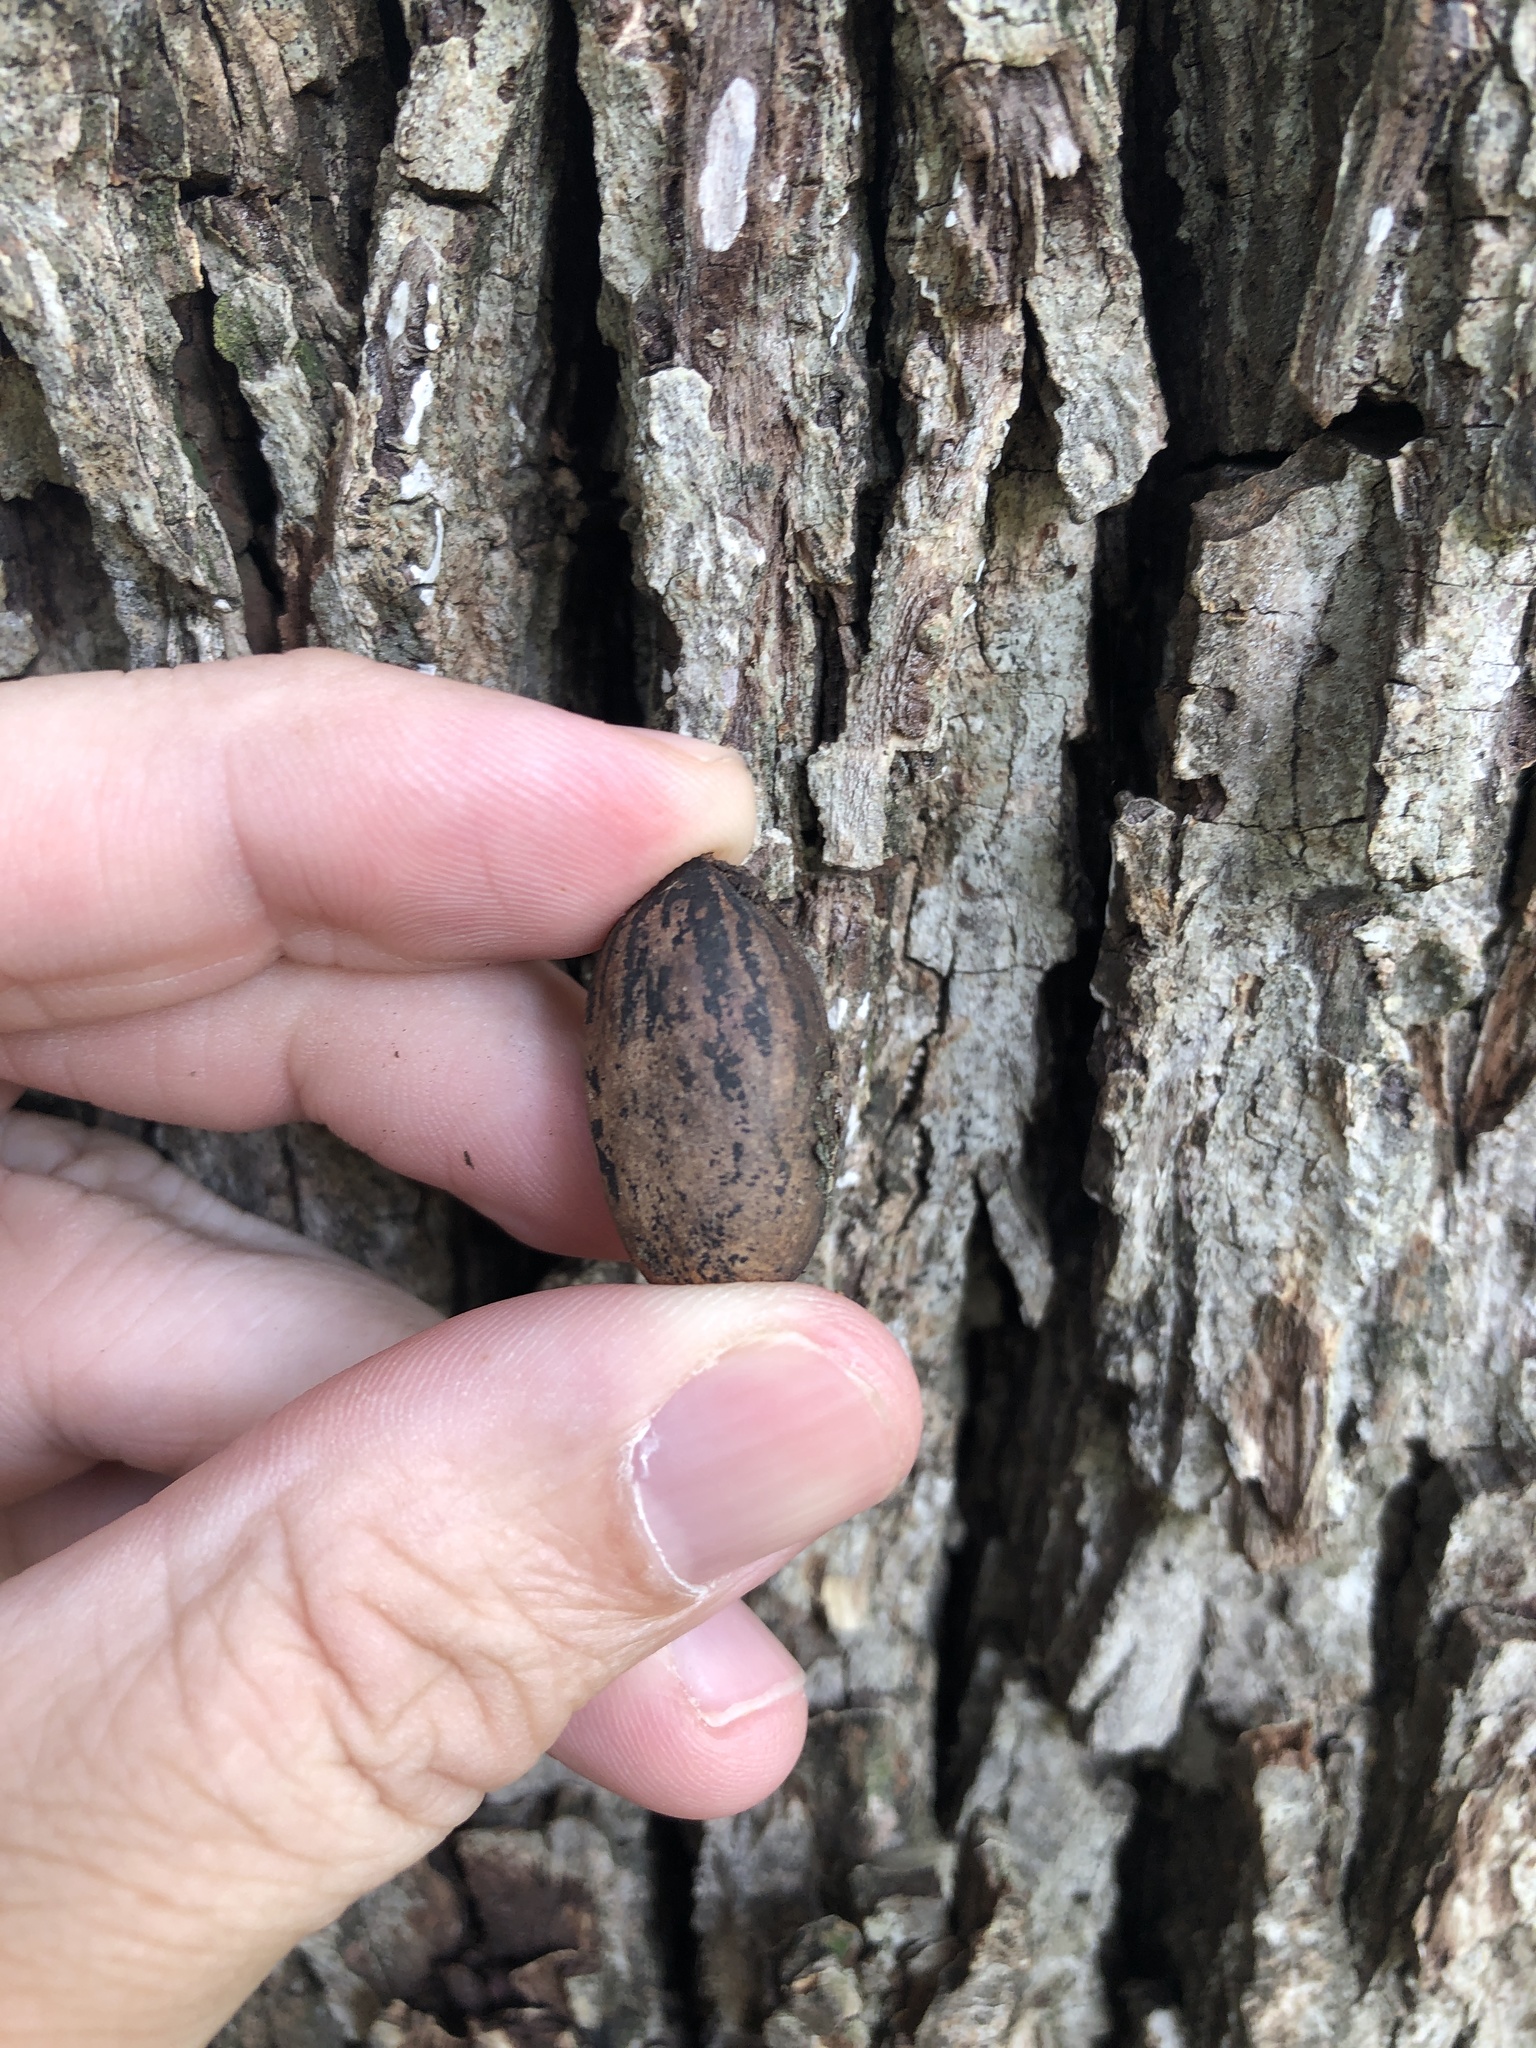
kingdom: Plantae
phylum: Tracheophyta
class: Magnoliopsida
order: Fagales
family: Juglandaceae
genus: Carya
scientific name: Carya illinoinensis
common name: Pecan
